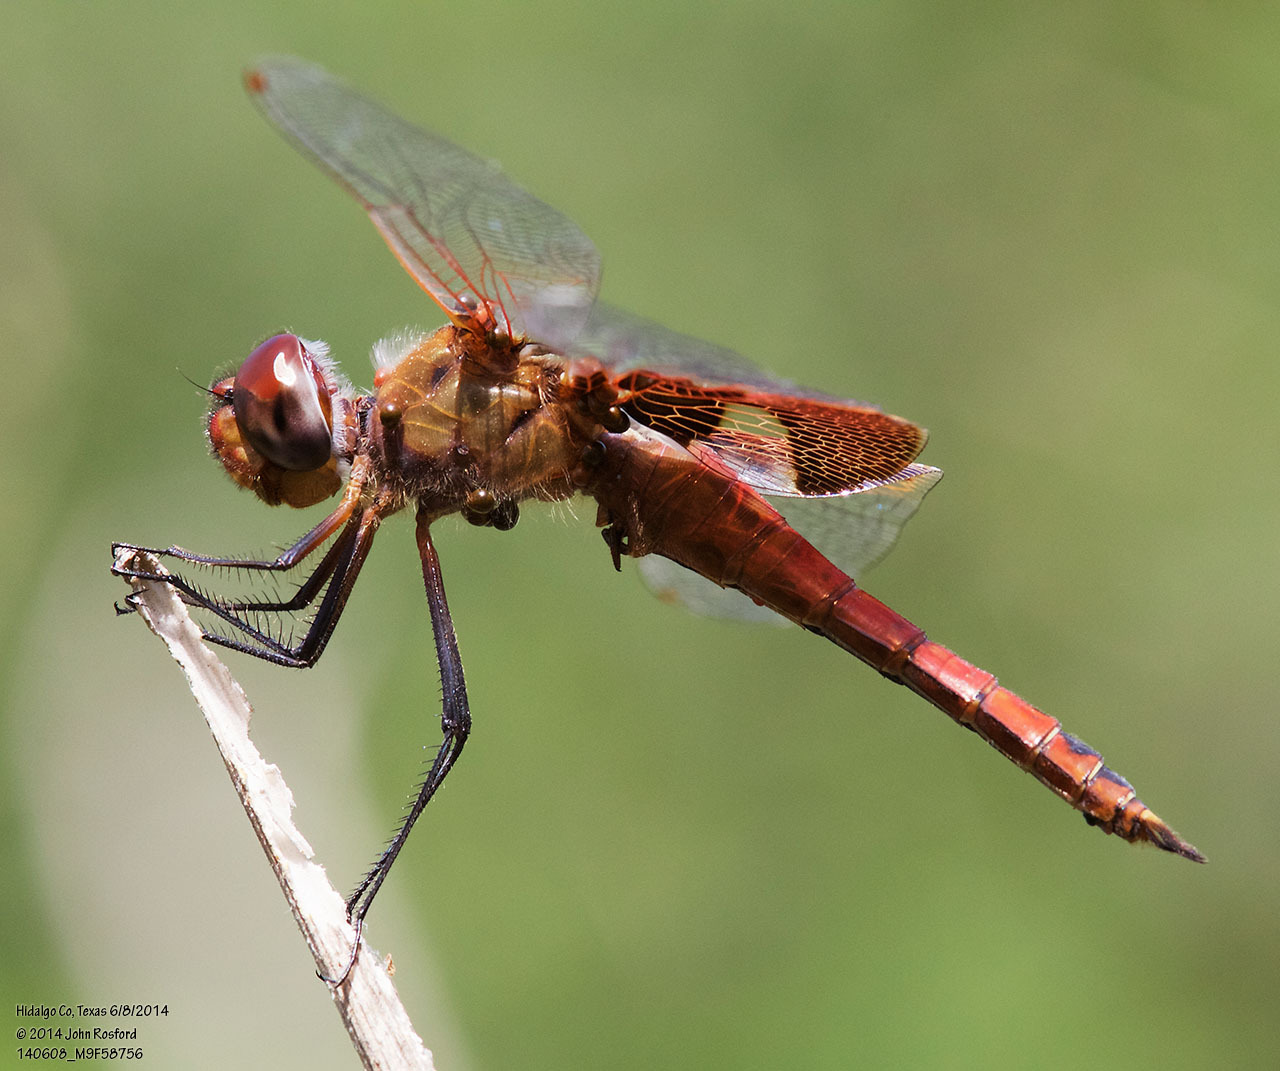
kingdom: Animalia
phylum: Arthropoda
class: Insecta
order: Odonata
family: Libellulidae
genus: Tramea
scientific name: Tramea onusta
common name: Red saddlebags
